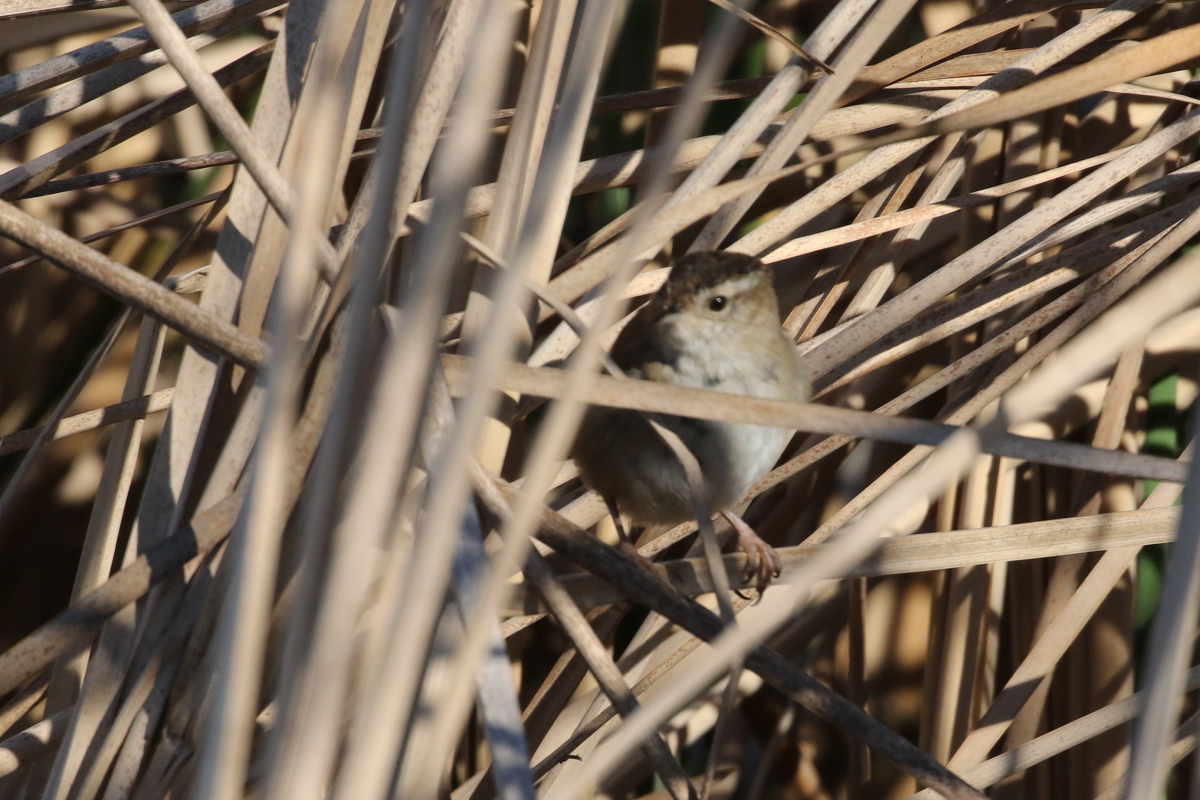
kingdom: Animalia
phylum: Chordata
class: Aves
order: Passeriformes
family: Troglodytidae
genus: Cistothorus
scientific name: Cistothorus palustris
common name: Marsh wren
